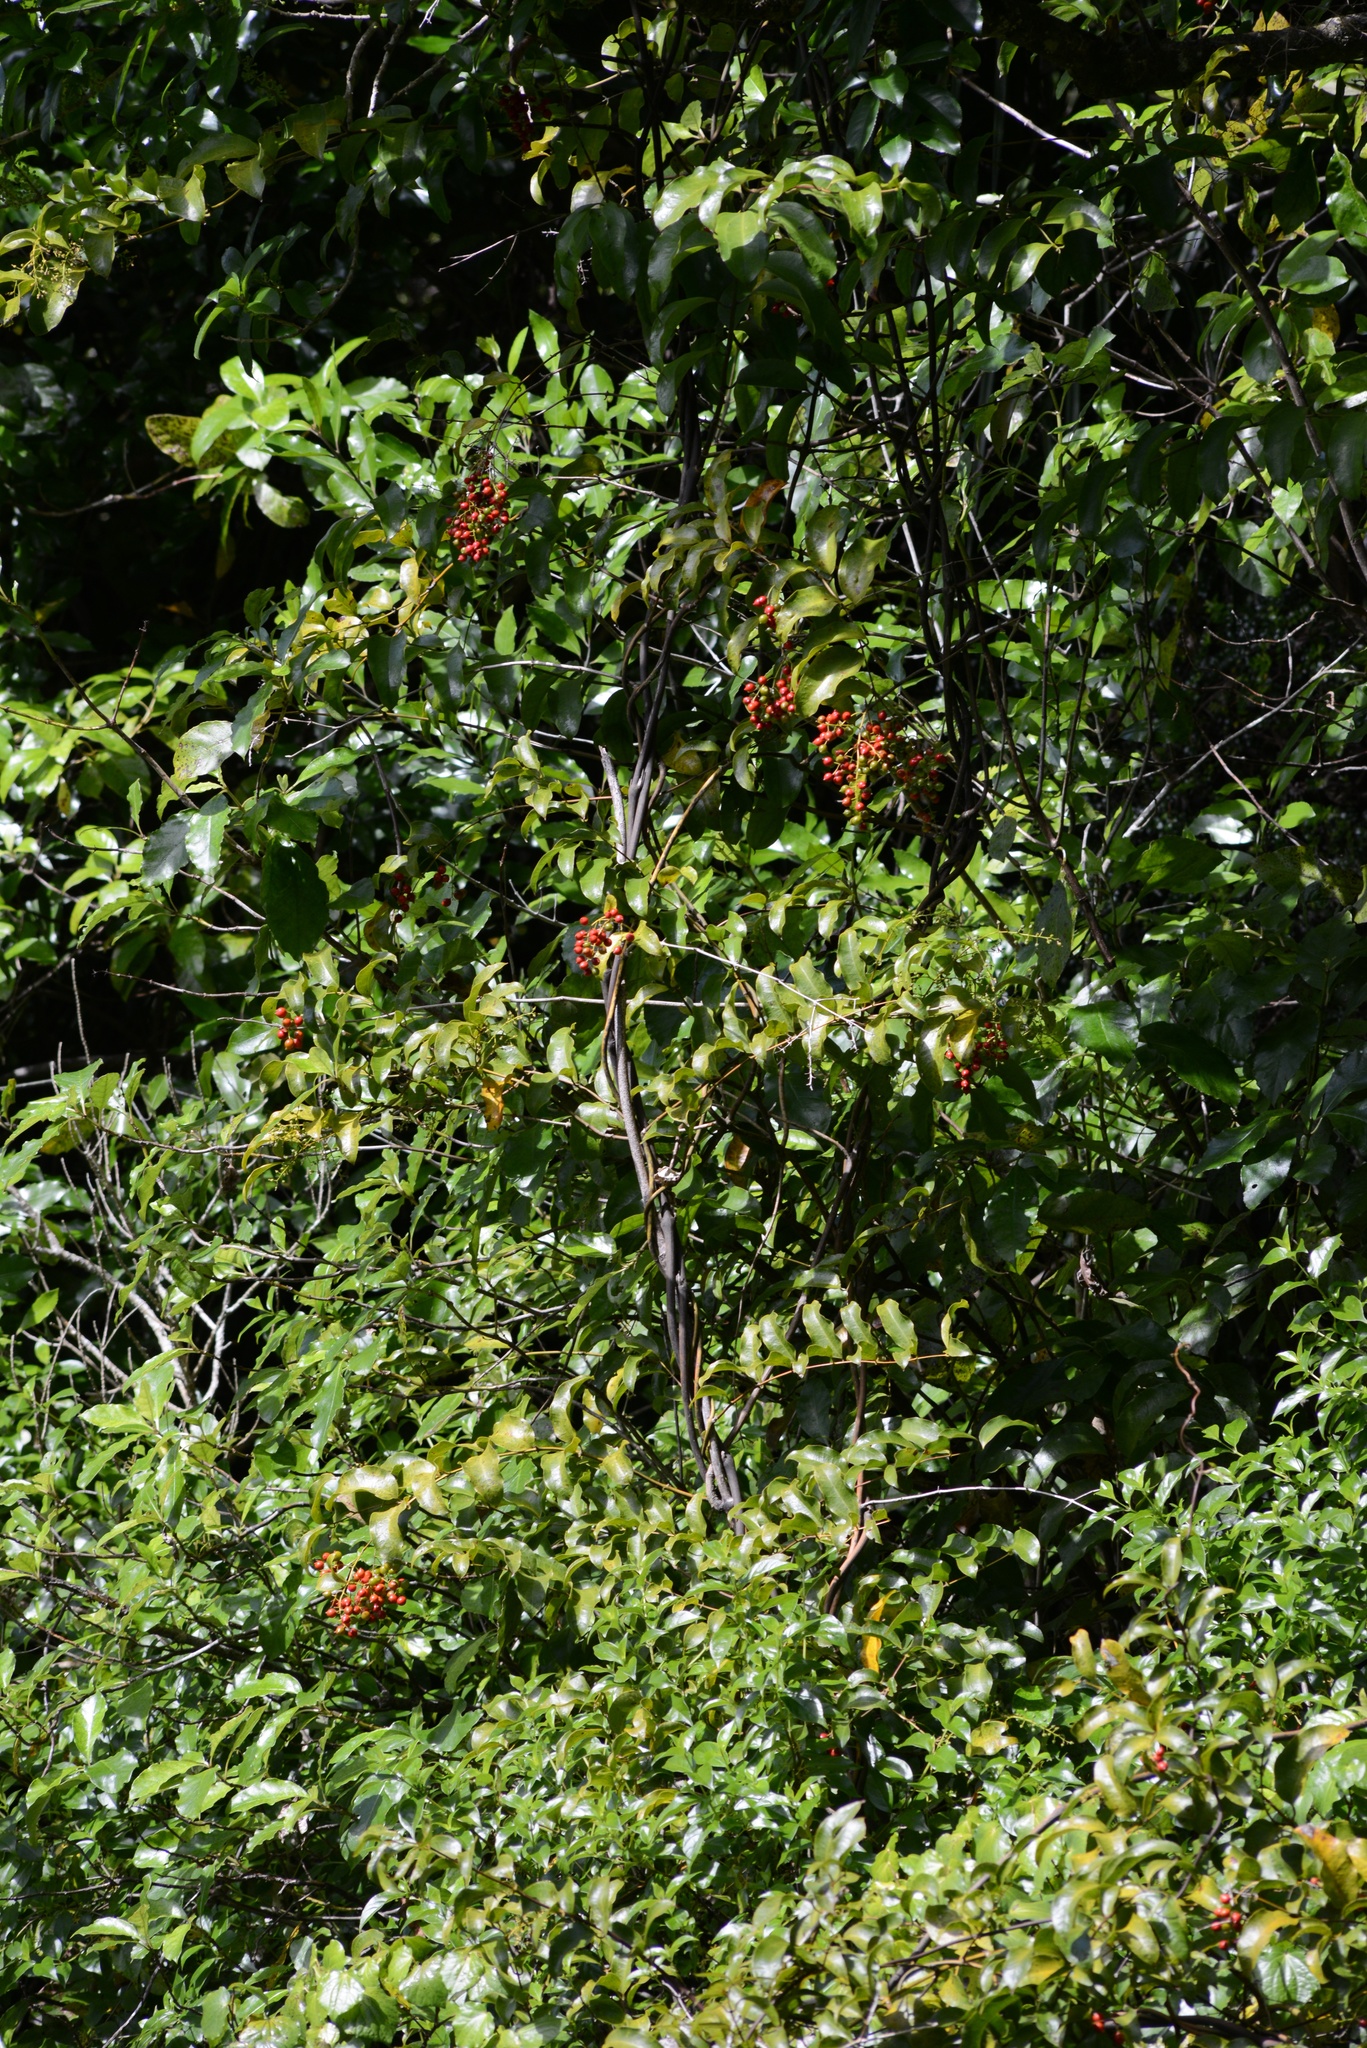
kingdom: Plantae
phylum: Tracheophyta
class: Liliopsida
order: Liliales
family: Ripogonaceae
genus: Ripogonum
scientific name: Ripogonum scandens
